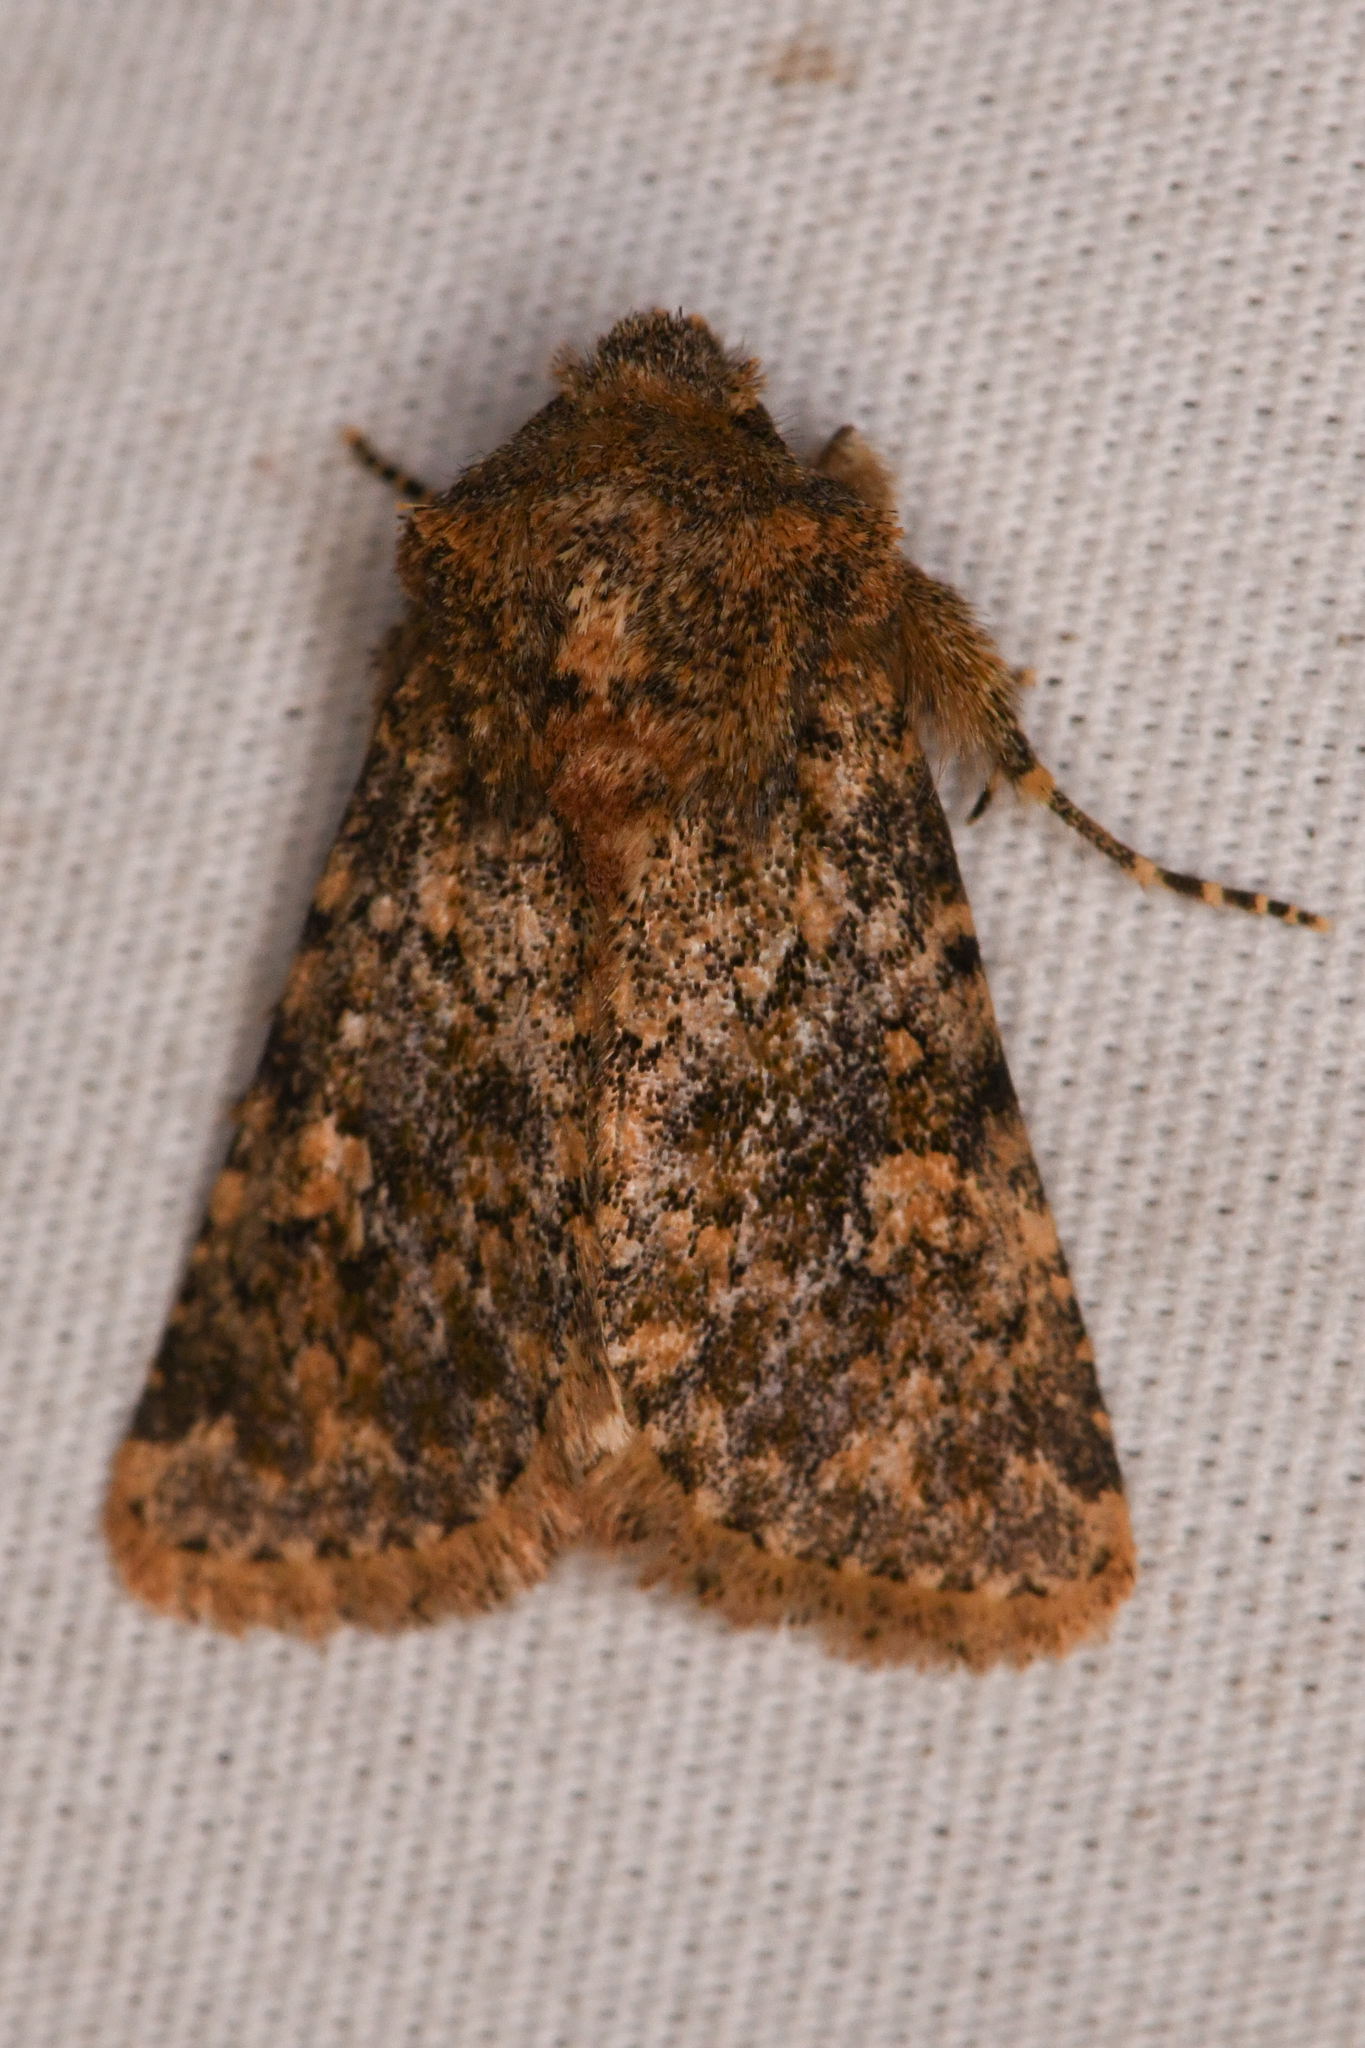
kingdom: Animalia
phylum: Arthropoda
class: Insecta
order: Lepidoptera
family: Noctuidae
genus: Pseudobryomima
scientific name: Pseudobryomima fallax
